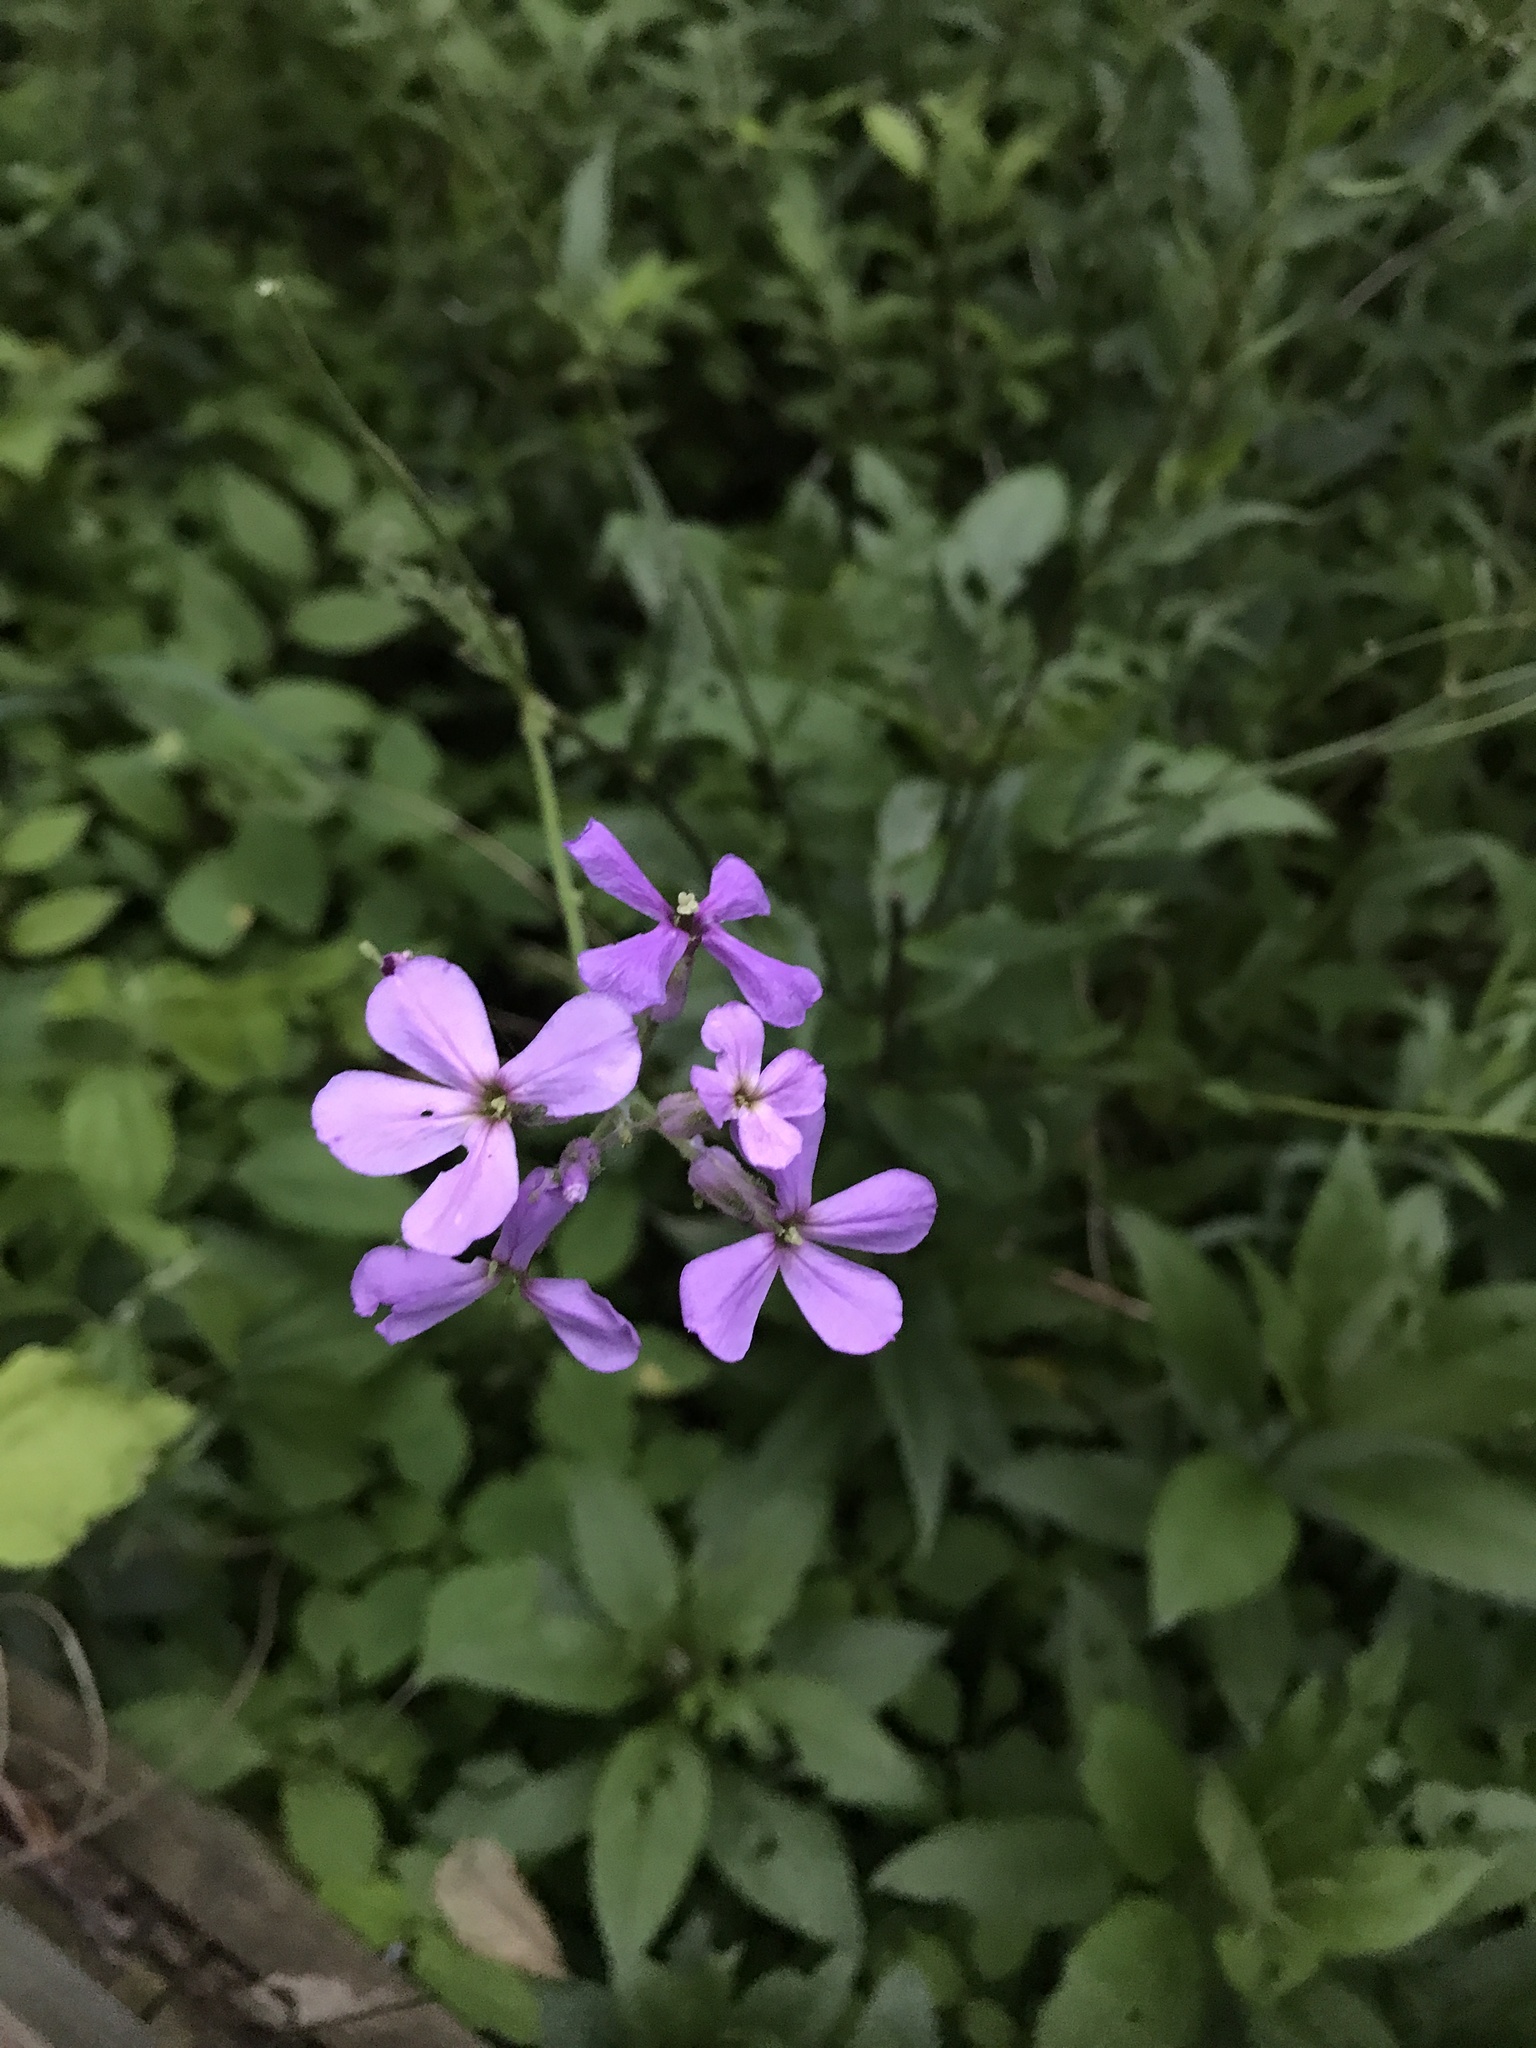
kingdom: Plantae
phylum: Tracheophyta
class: Magnoliopsida
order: Brassicales
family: Brassicaceae
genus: Hesperis
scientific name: Hesperis matronalis
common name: Dame's-violet
